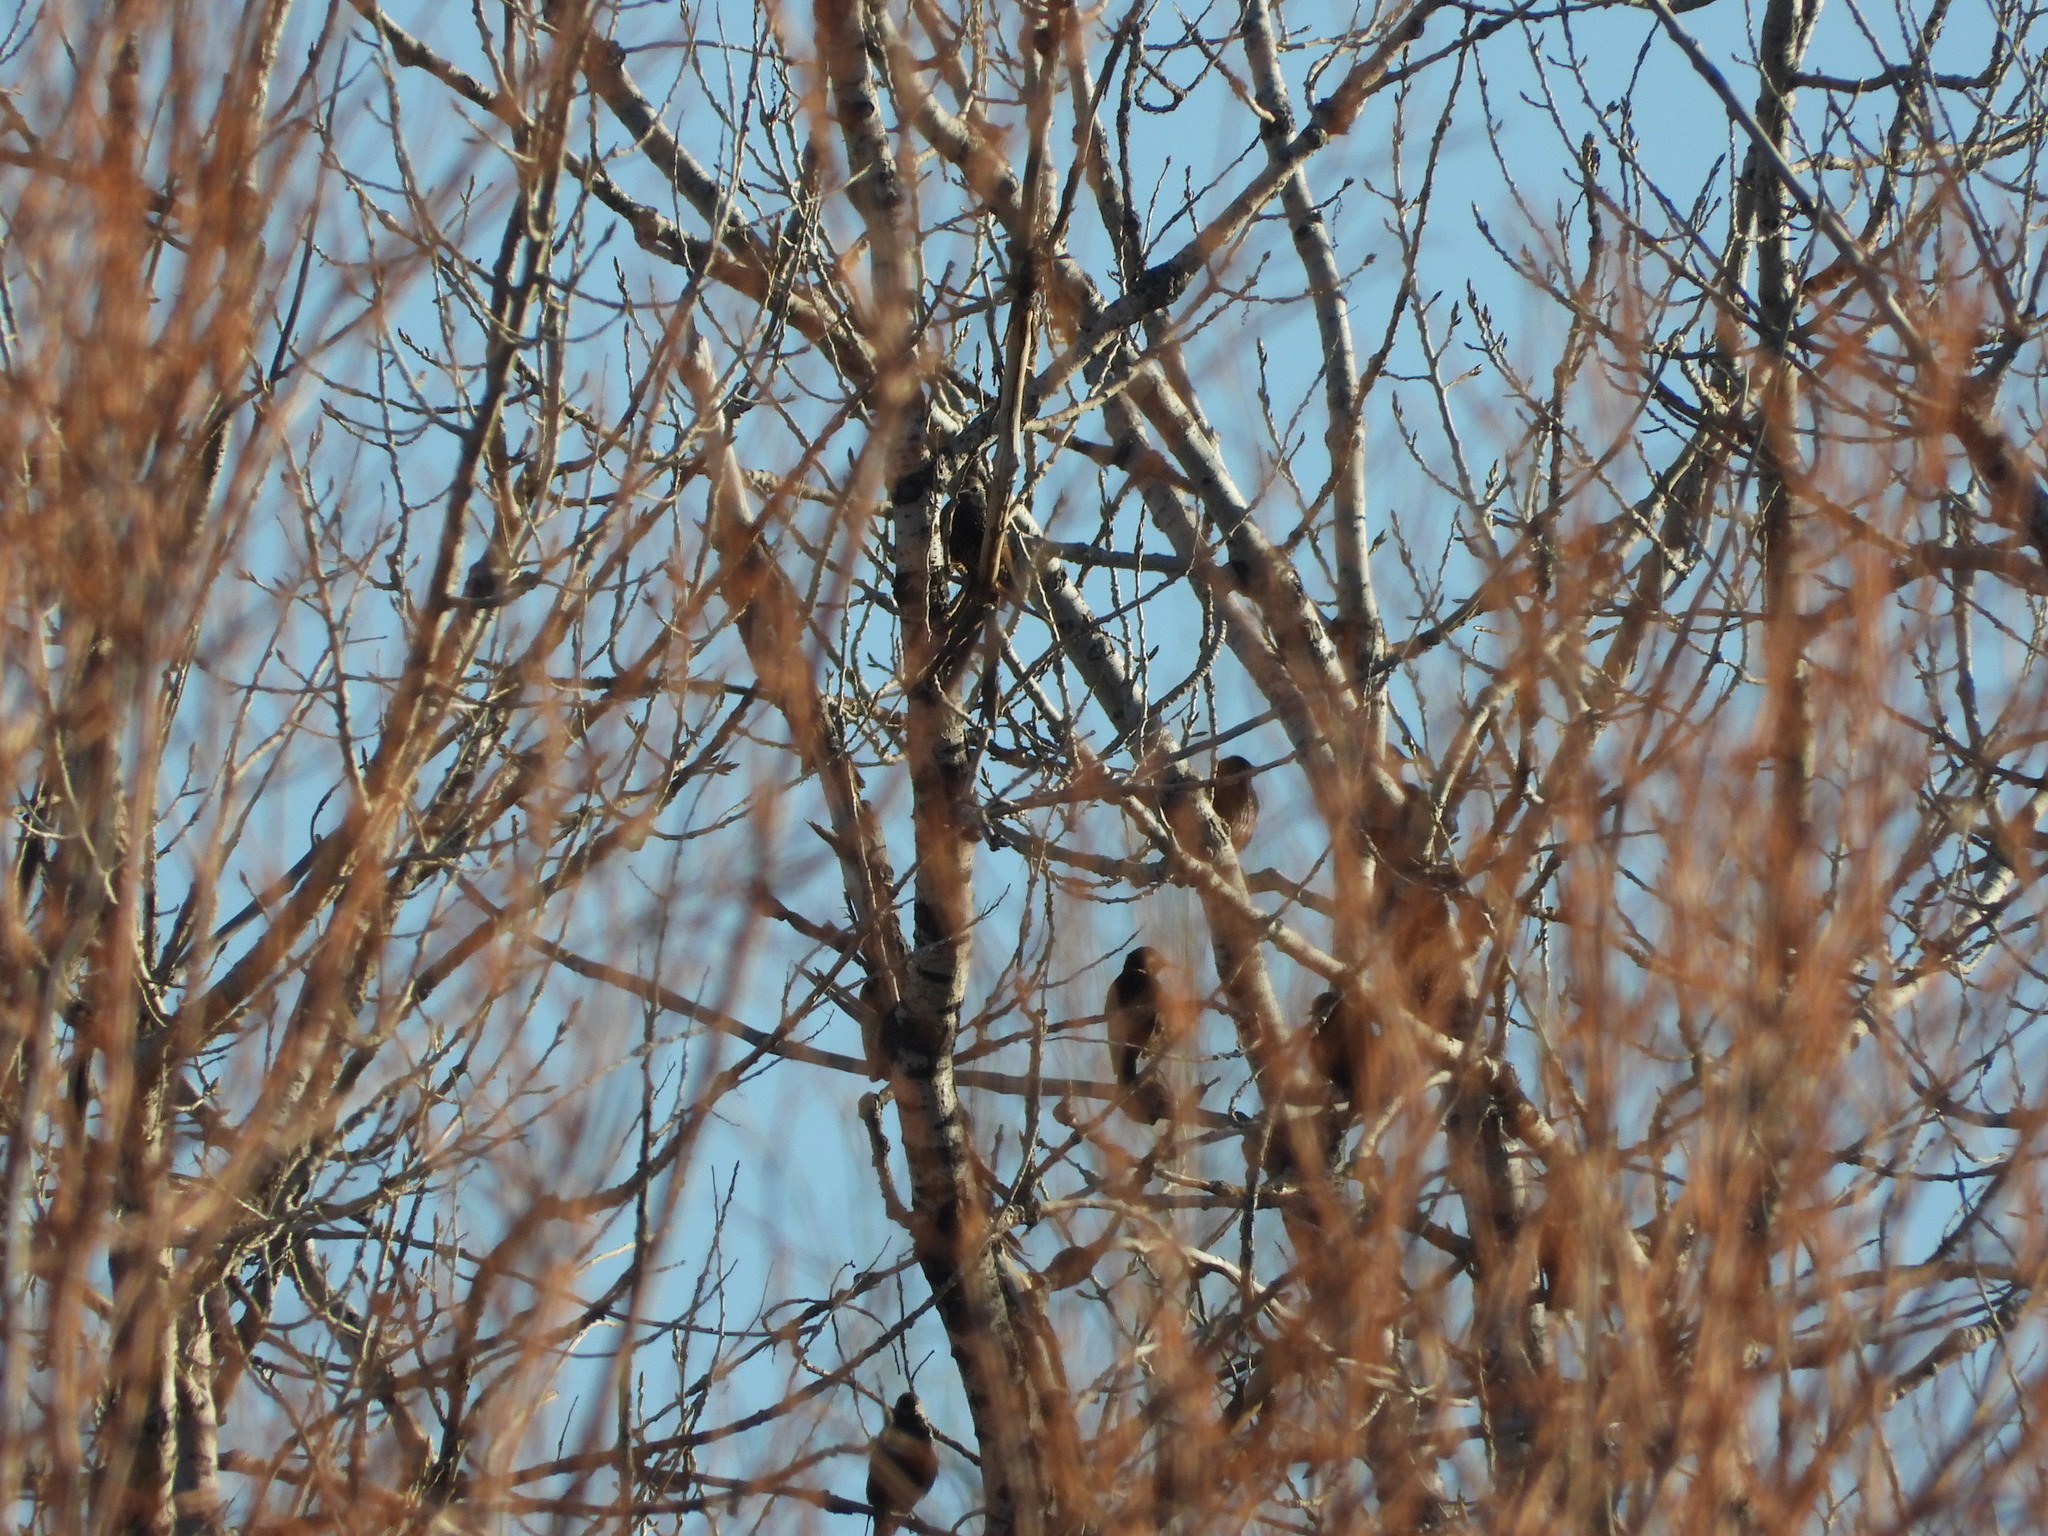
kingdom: Animalia
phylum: Chordata
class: Aves
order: Passeriformes
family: Sturnidae
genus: Sturnus
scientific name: Sturnus vulgaris
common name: Common starling
